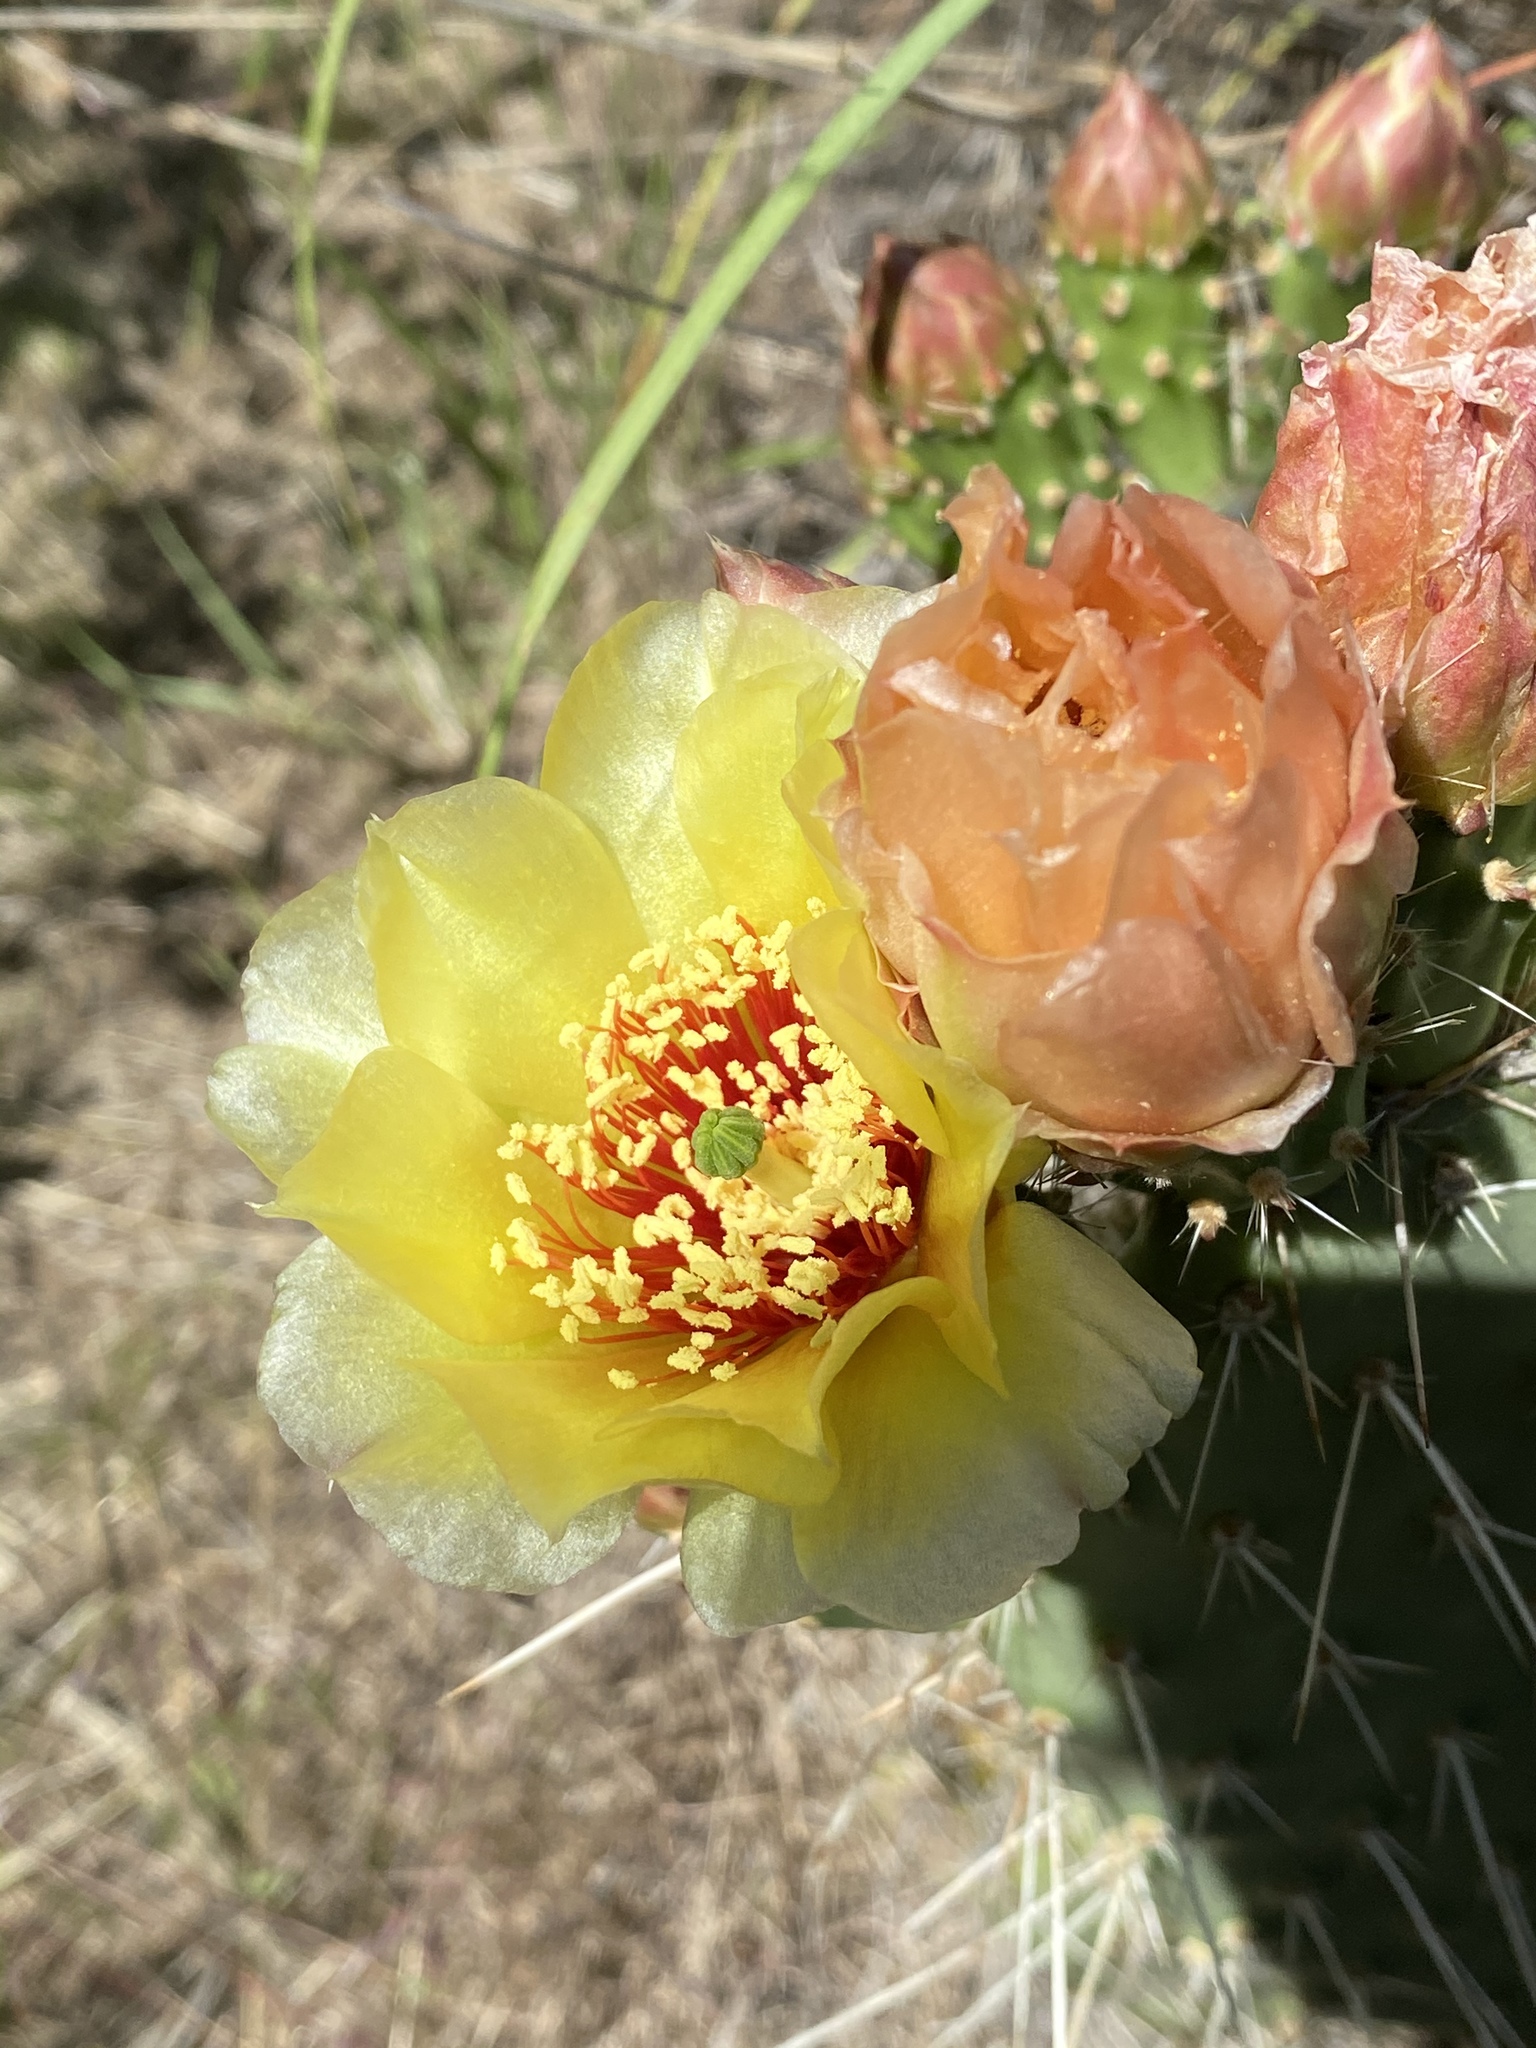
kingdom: Plantae
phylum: Tracheophyta
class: Magnoliopsida
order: Caryophyllales
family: Cactaceae
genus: Opuntia
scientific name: Opuntia polyacantha
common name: Plains prickly-pear
